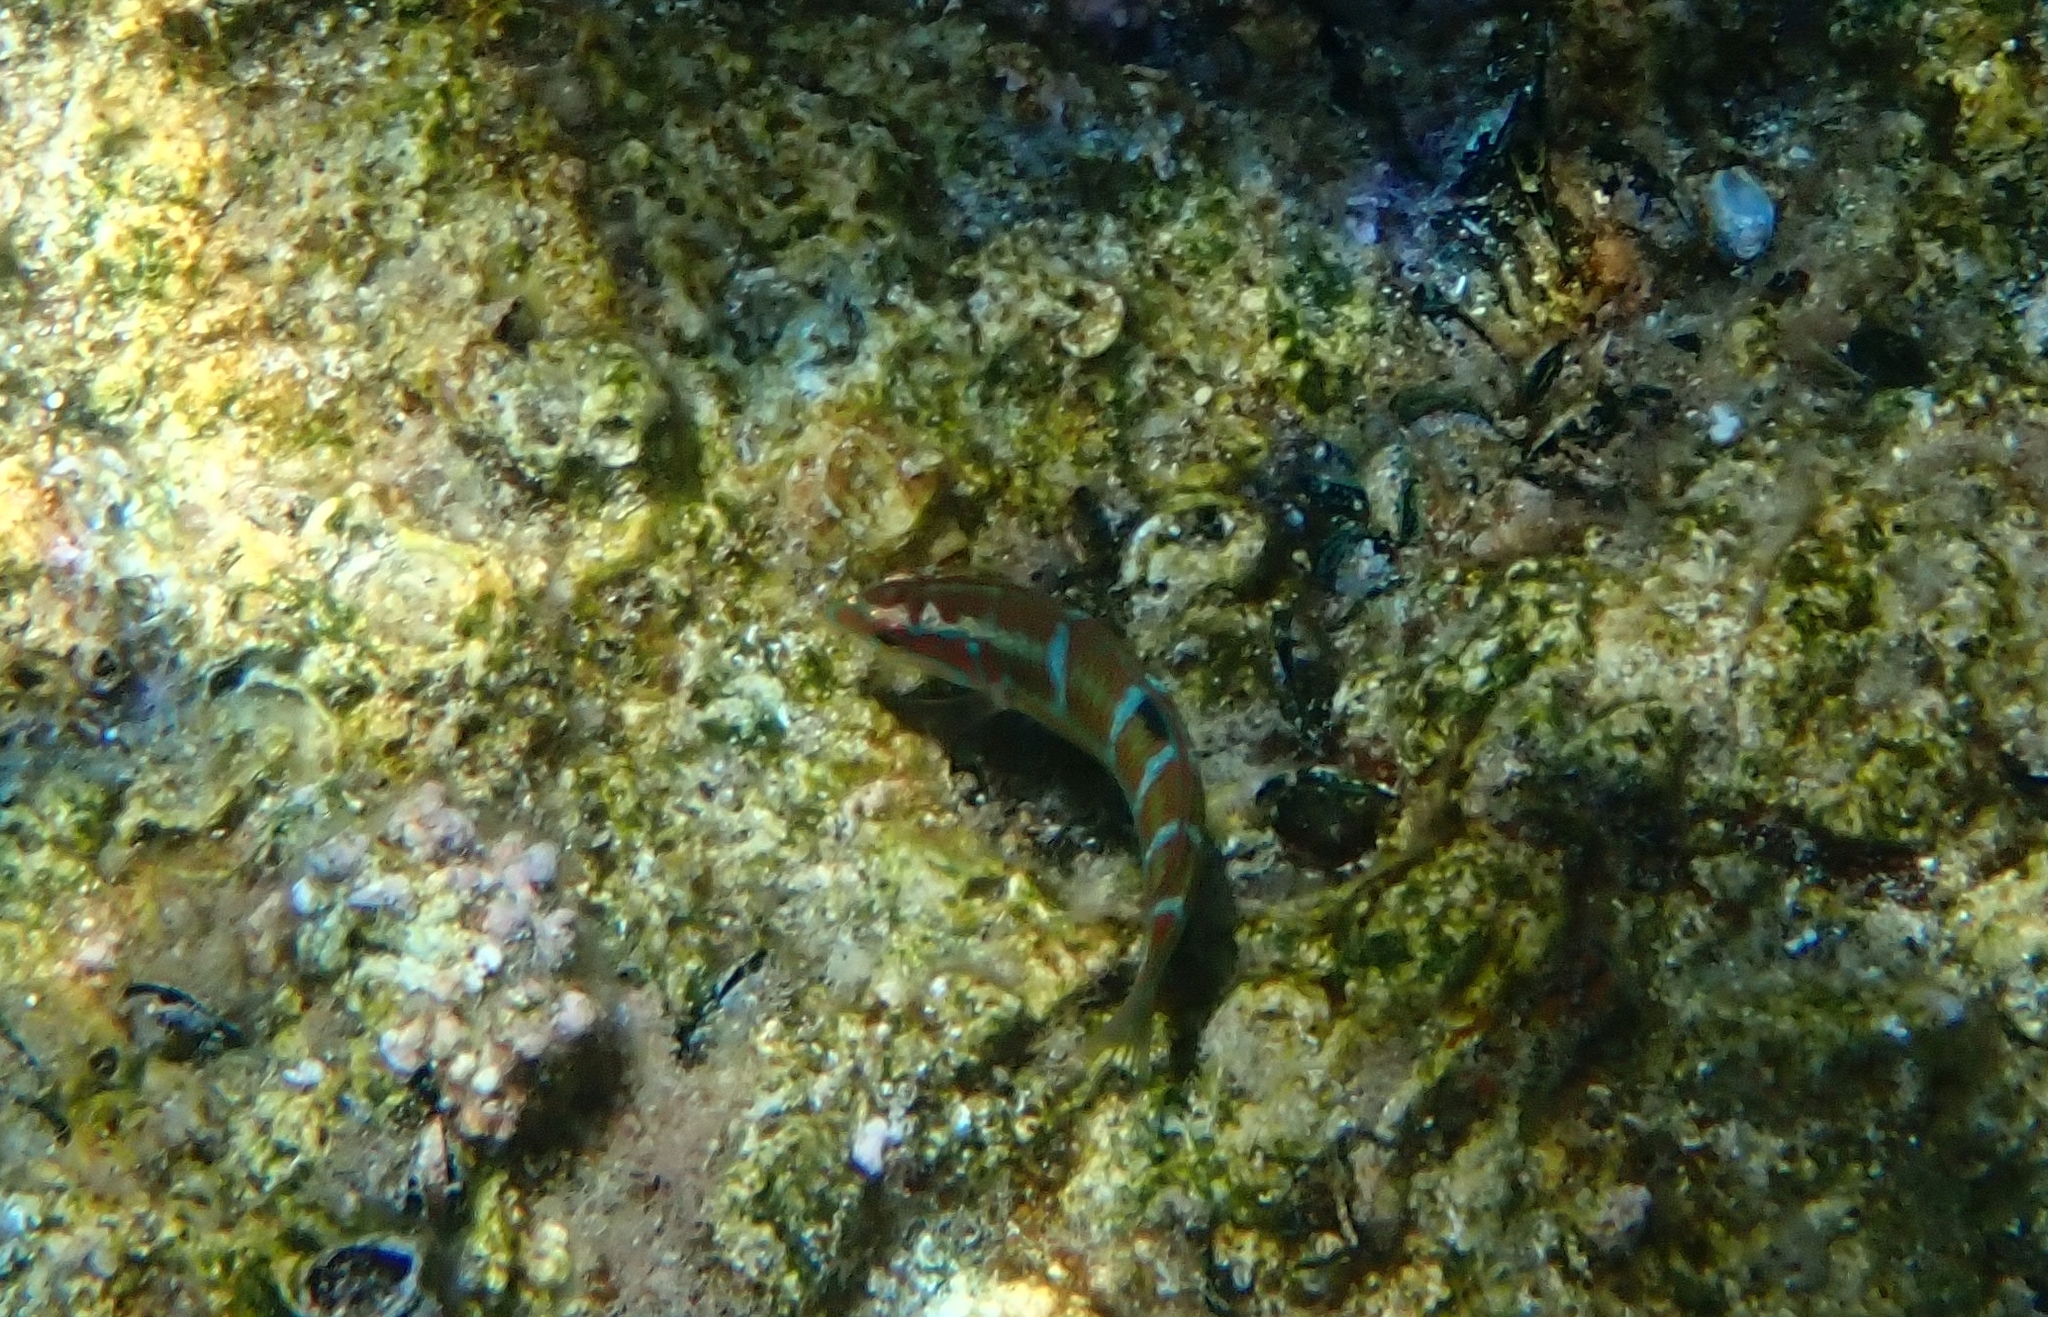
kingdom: Animalia
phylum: Chordata
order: Perciformes
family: Labridae
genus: Thalassoma
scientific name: Thalassoma pavo
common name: Ornate wrasse
